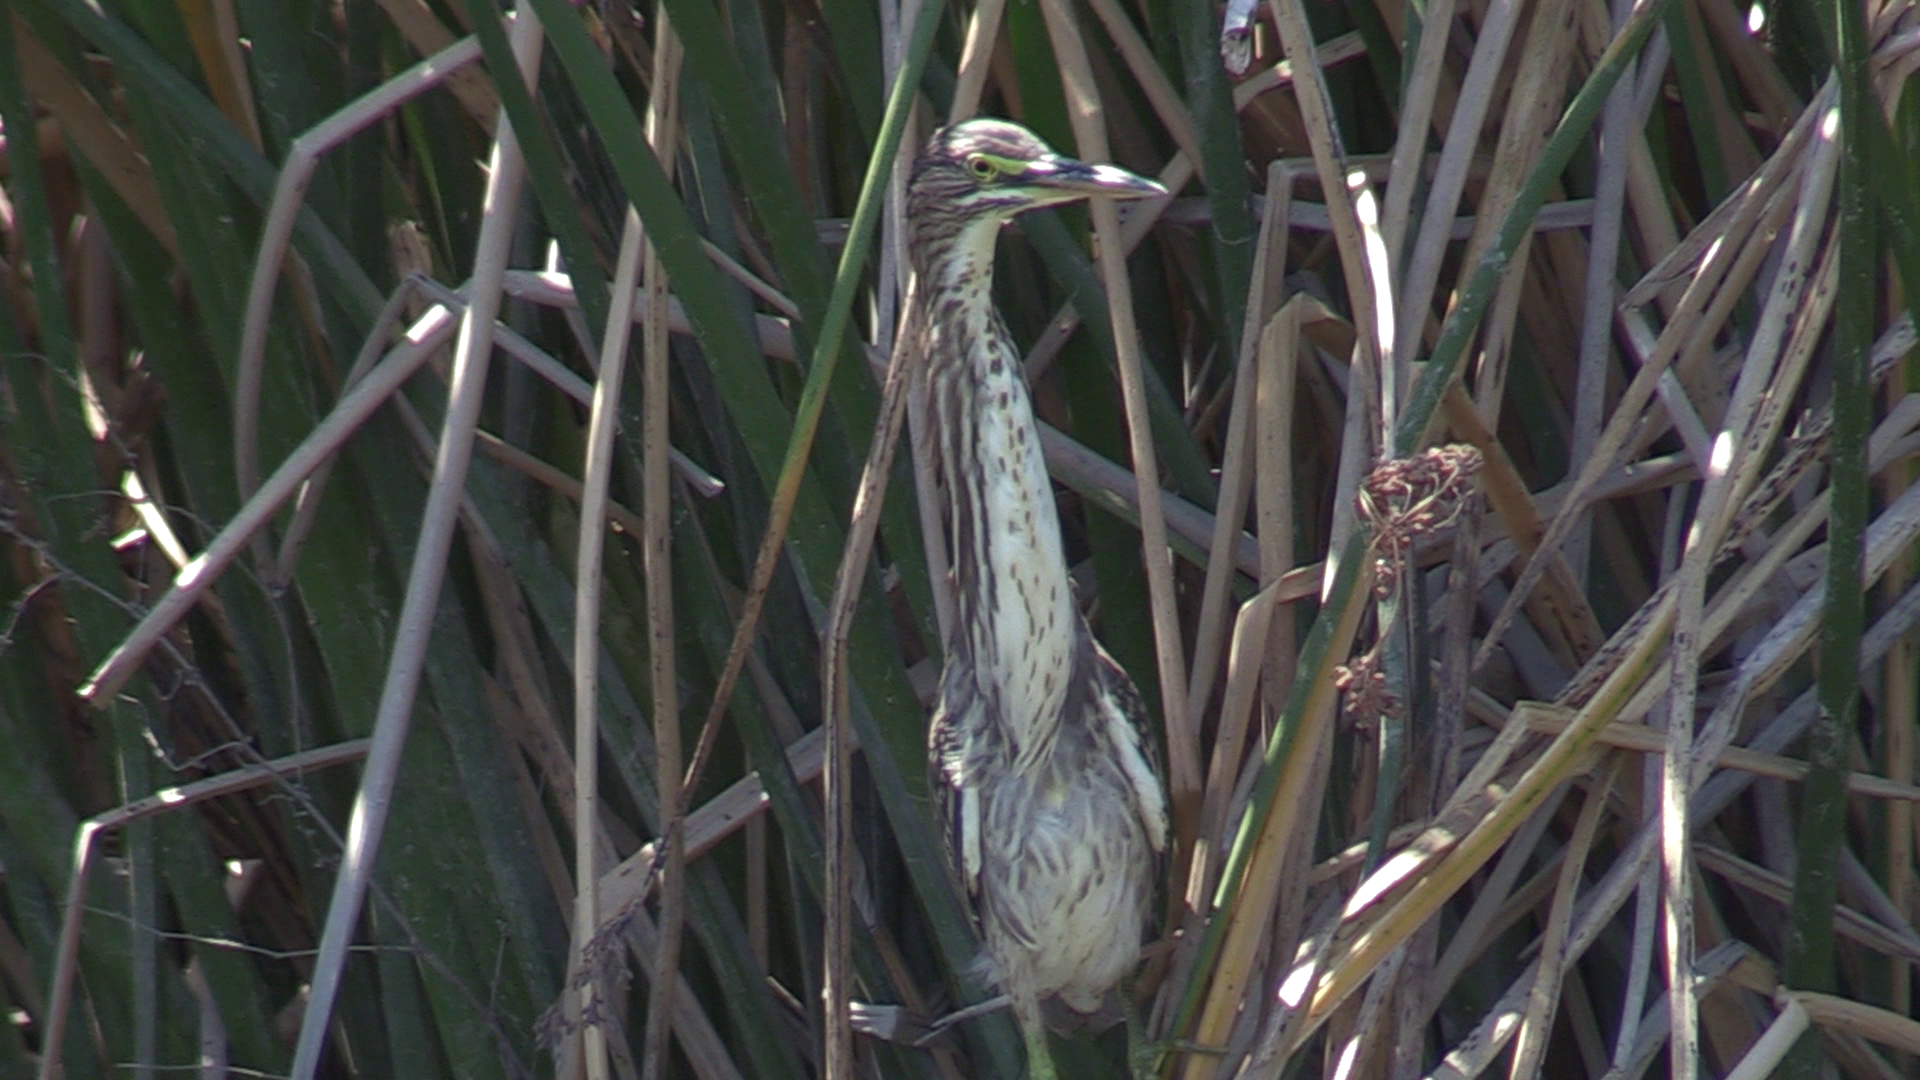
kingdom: Animalia
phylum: Chordata
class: Aves
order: Pelecaniformes
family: Ardeidae
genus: Butorides
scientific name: Butorides virescens
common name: Green heron
